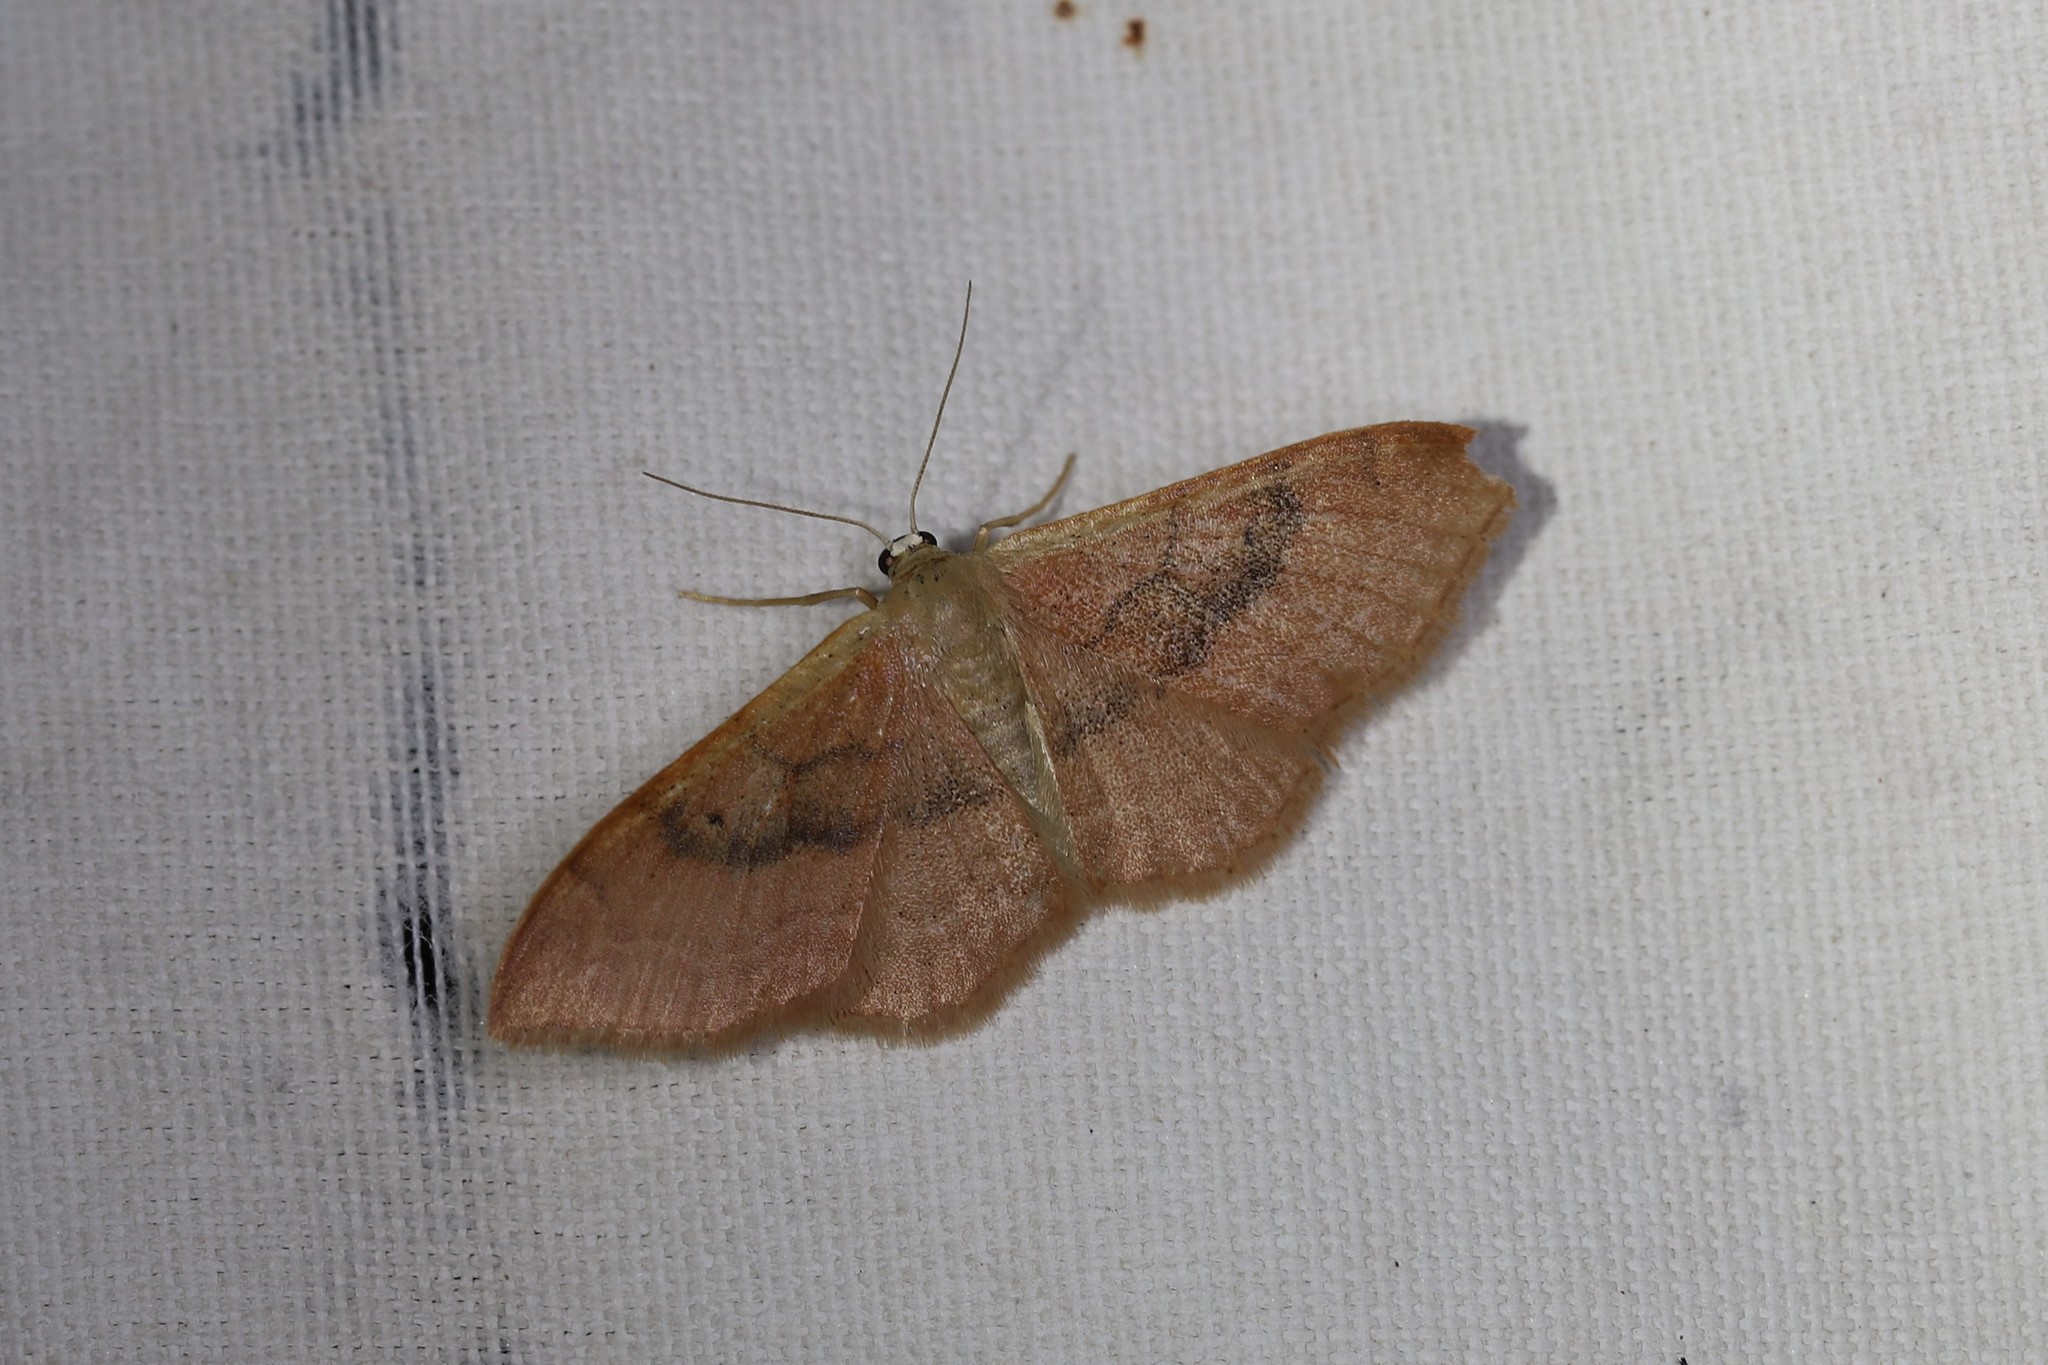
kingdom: Animalia
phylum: Arthropoda
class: Insecta
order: Lepidoptera
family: Geometridae
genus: Idaea
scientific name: Idaea degeneraria
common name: Portland ribbon wave
